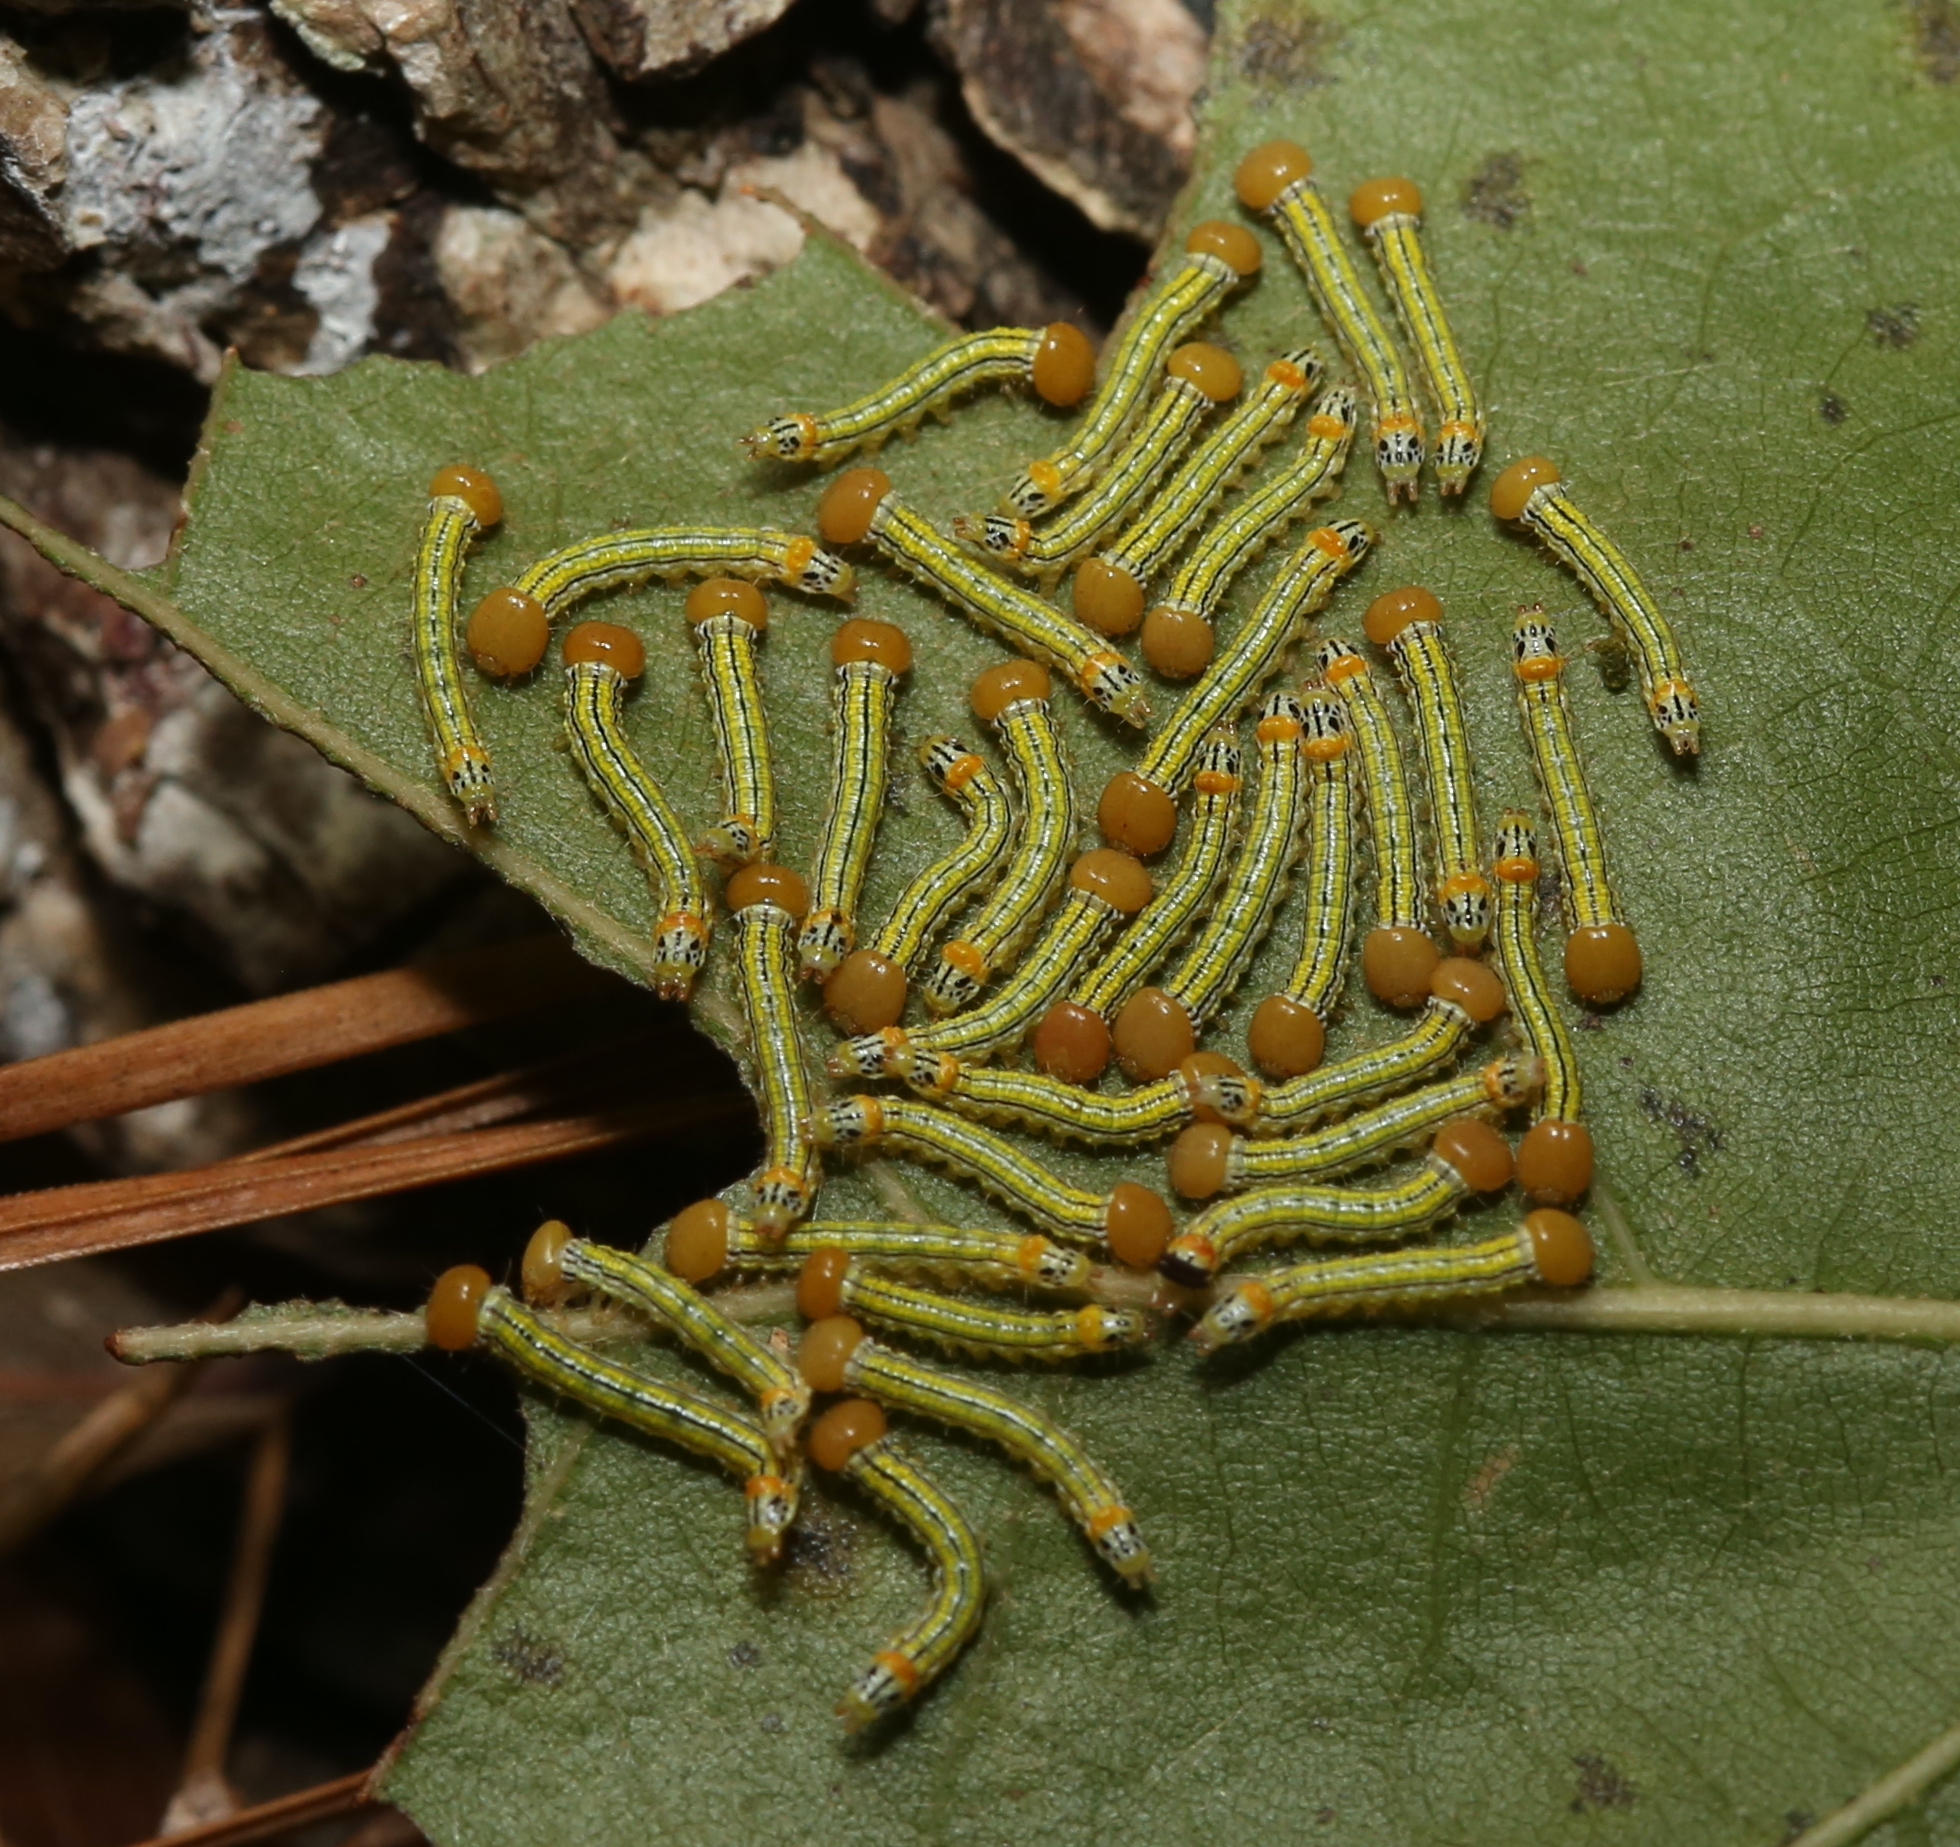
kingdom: Animalia
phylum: Arthropoda
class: Insecta
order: Lepidoptera
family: Notodontidae
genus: Symmerista
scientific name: Symmerista albifrons
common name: White-headed prominent
